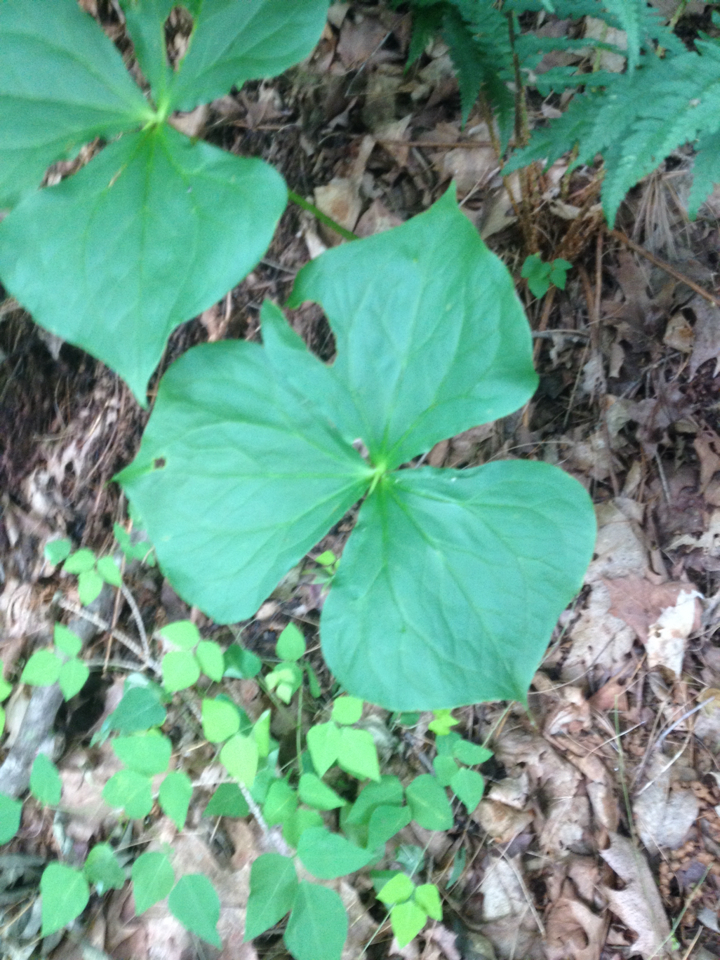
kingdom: Plantae
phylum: Tracheophyta
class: Liliopsida
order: Liliales
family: Melanthiaceae
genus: Trillium
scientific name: Trillium erectum
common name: Purple trillium
